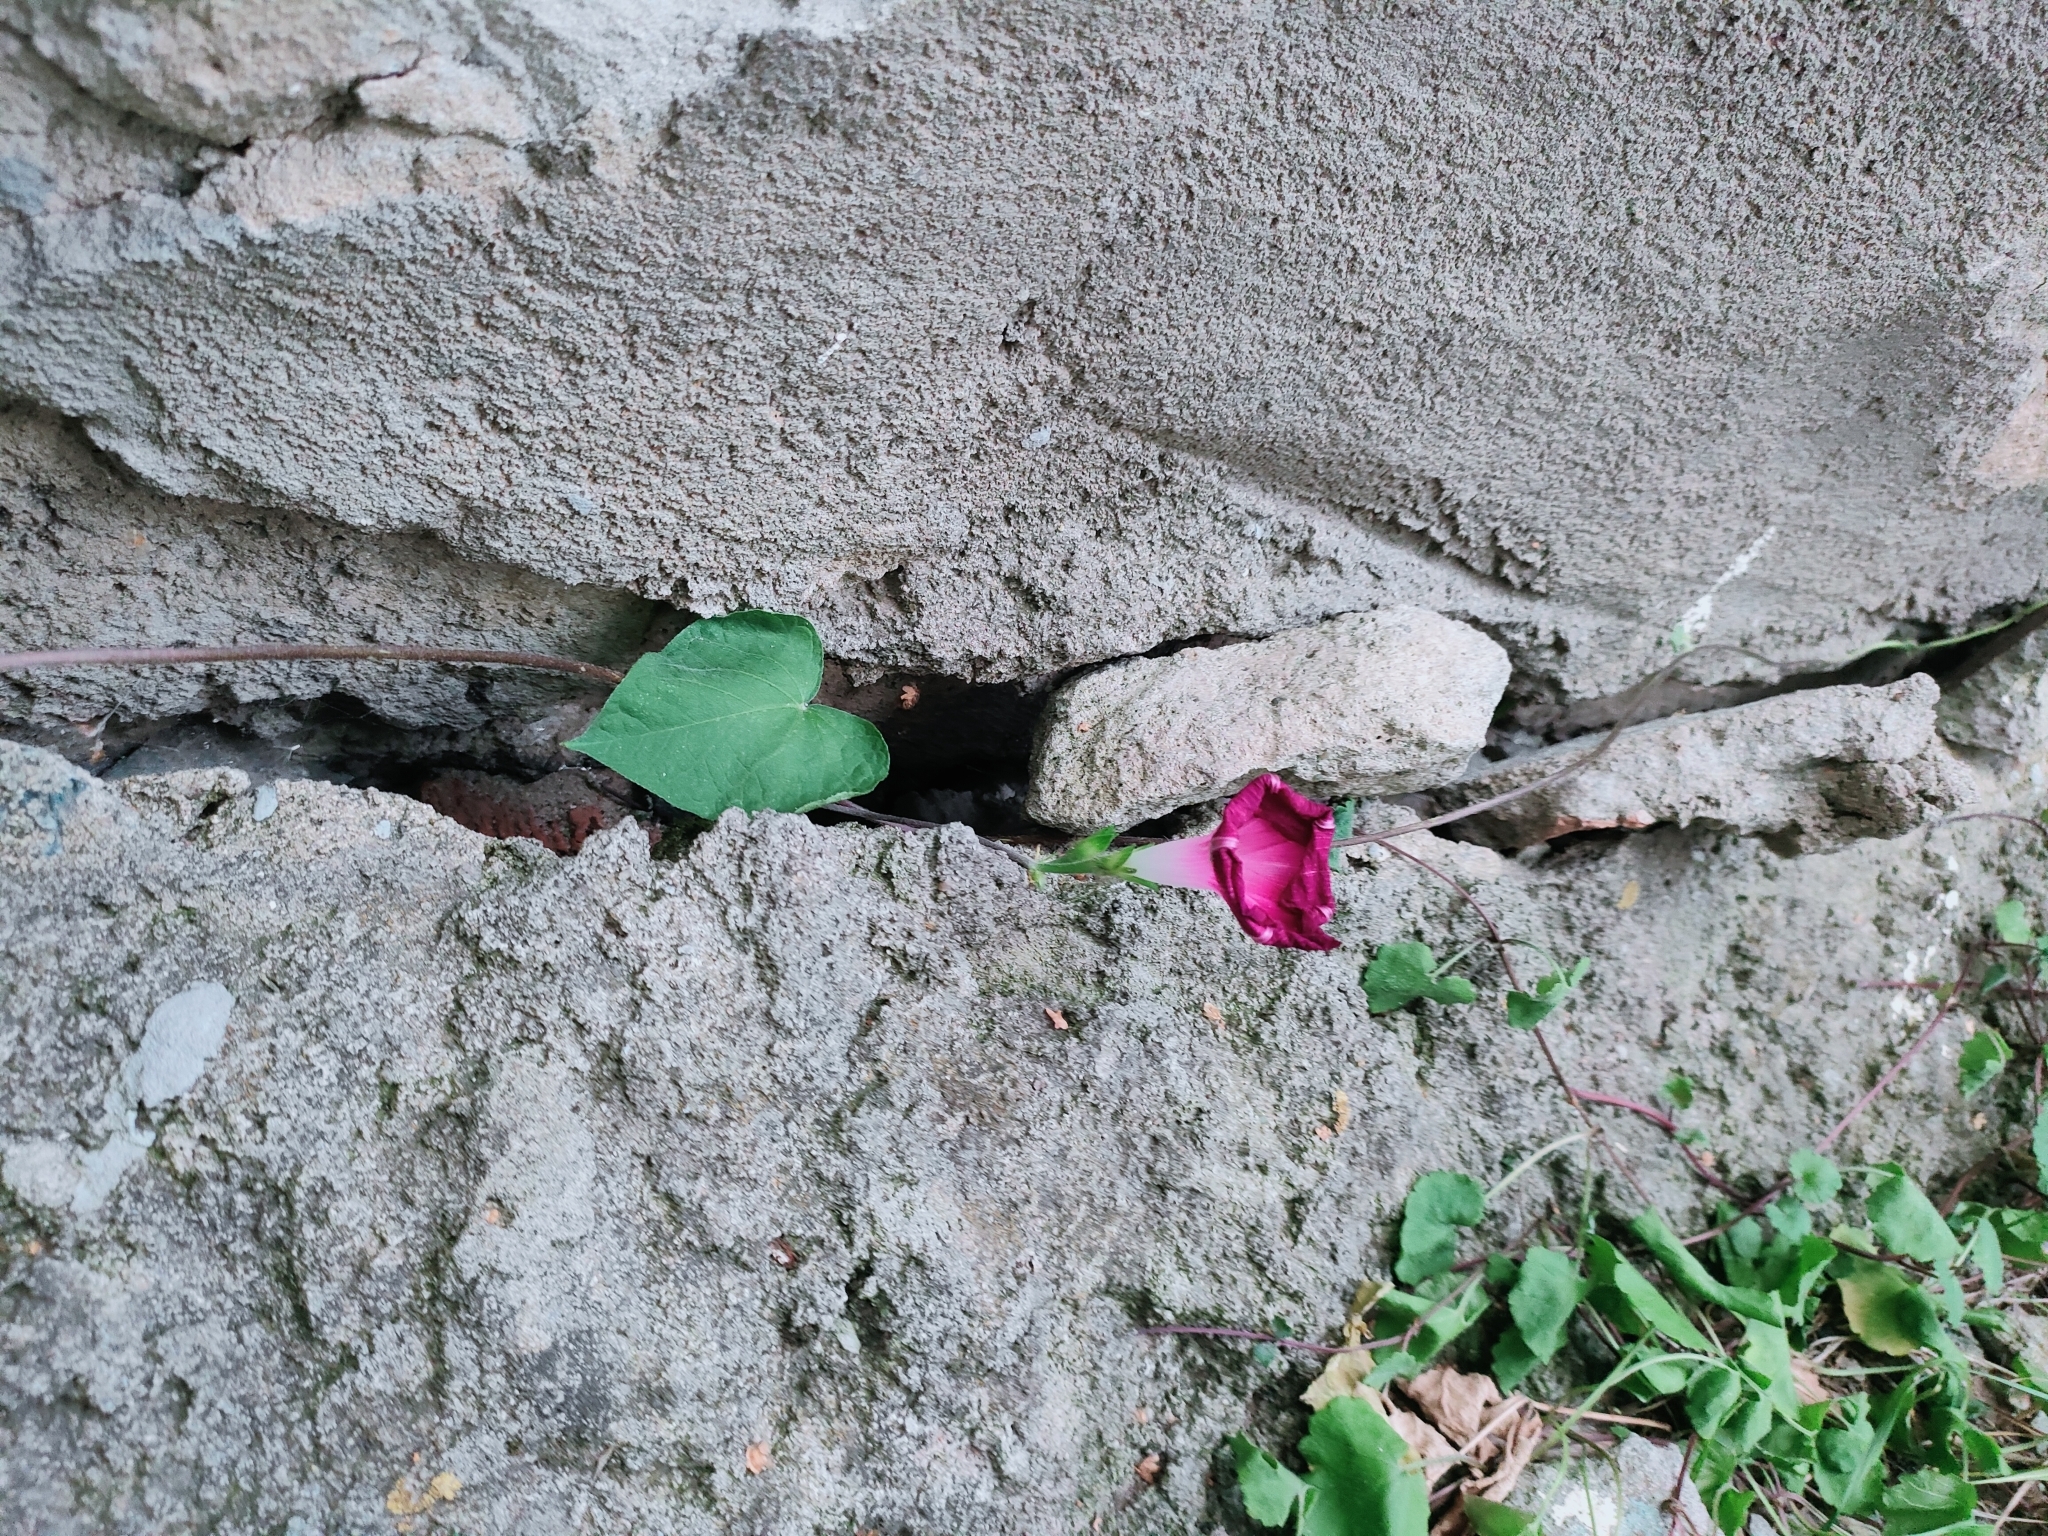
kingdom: Plantae
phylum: Tracheophyta
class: Magnoliopsida
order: Solanales
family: Convolvulaceae
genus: Ipomoea
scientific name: Ipomoea purpurea
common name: Common morning-glory
